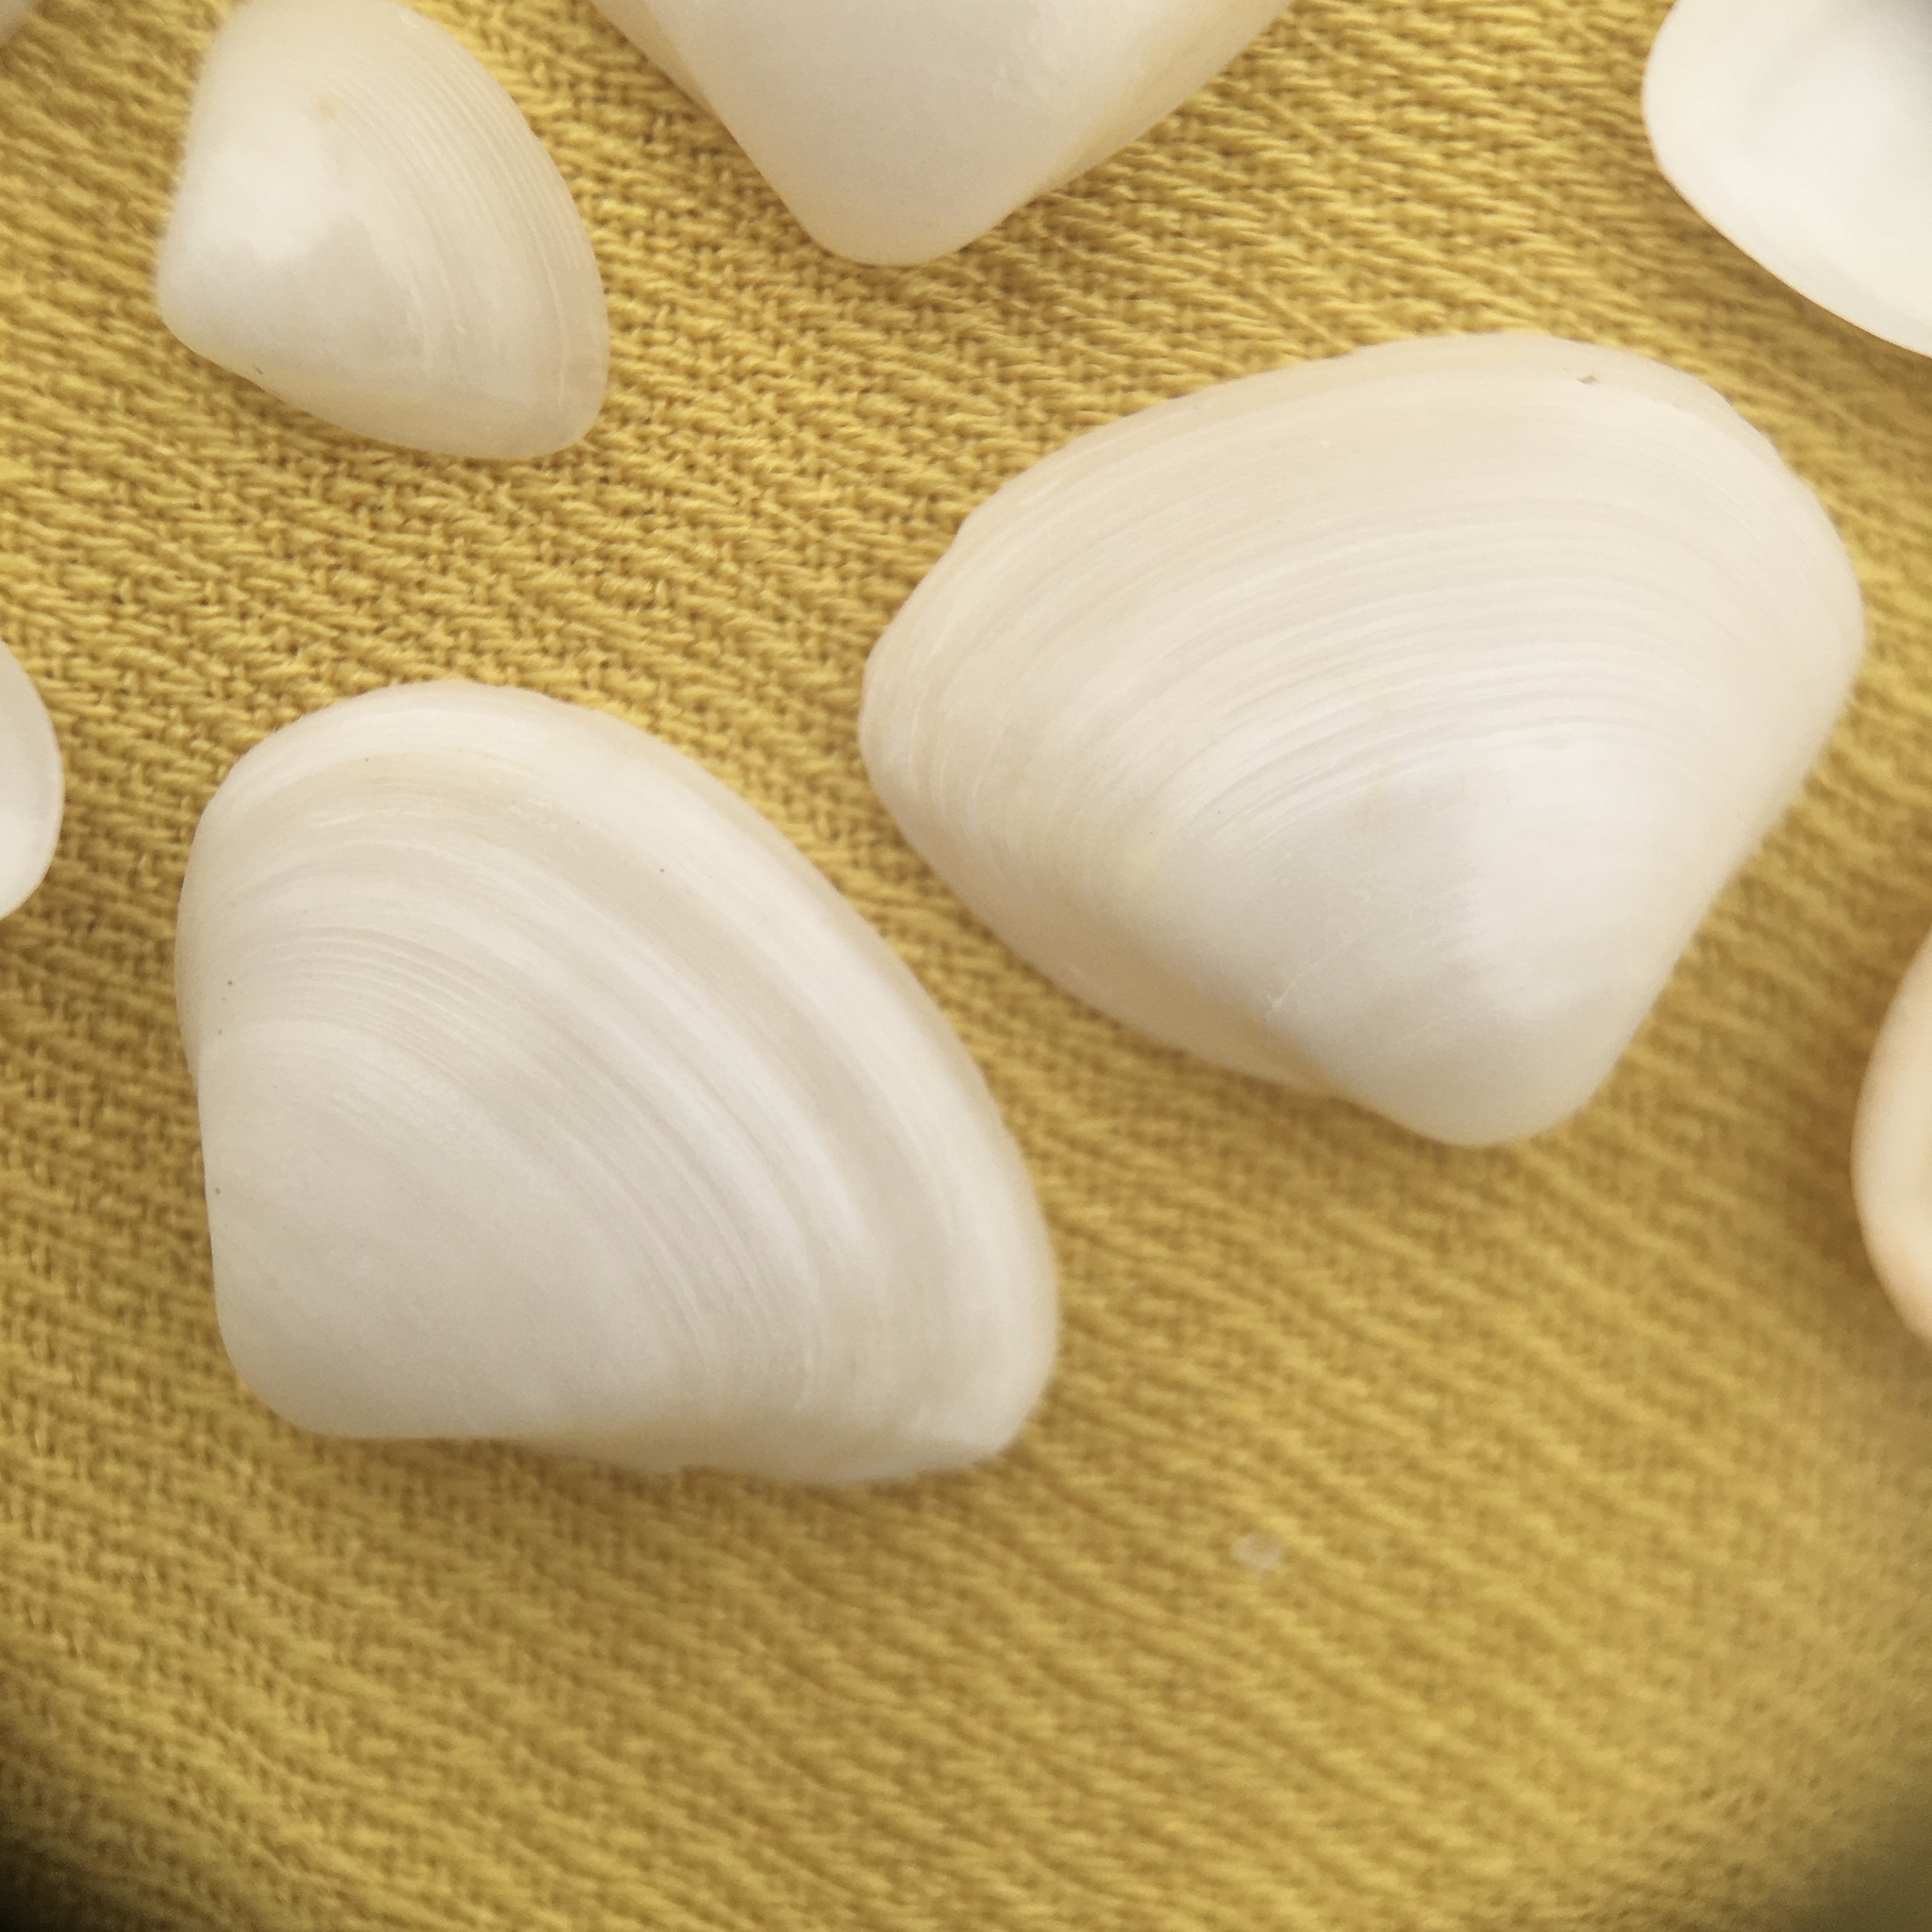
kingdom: Animalia
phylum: Mollusca
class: Bivalvia
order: Venerida
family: Mactridae
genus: Spisula
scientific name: Spisula subtruncata
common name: Cut trough shell
